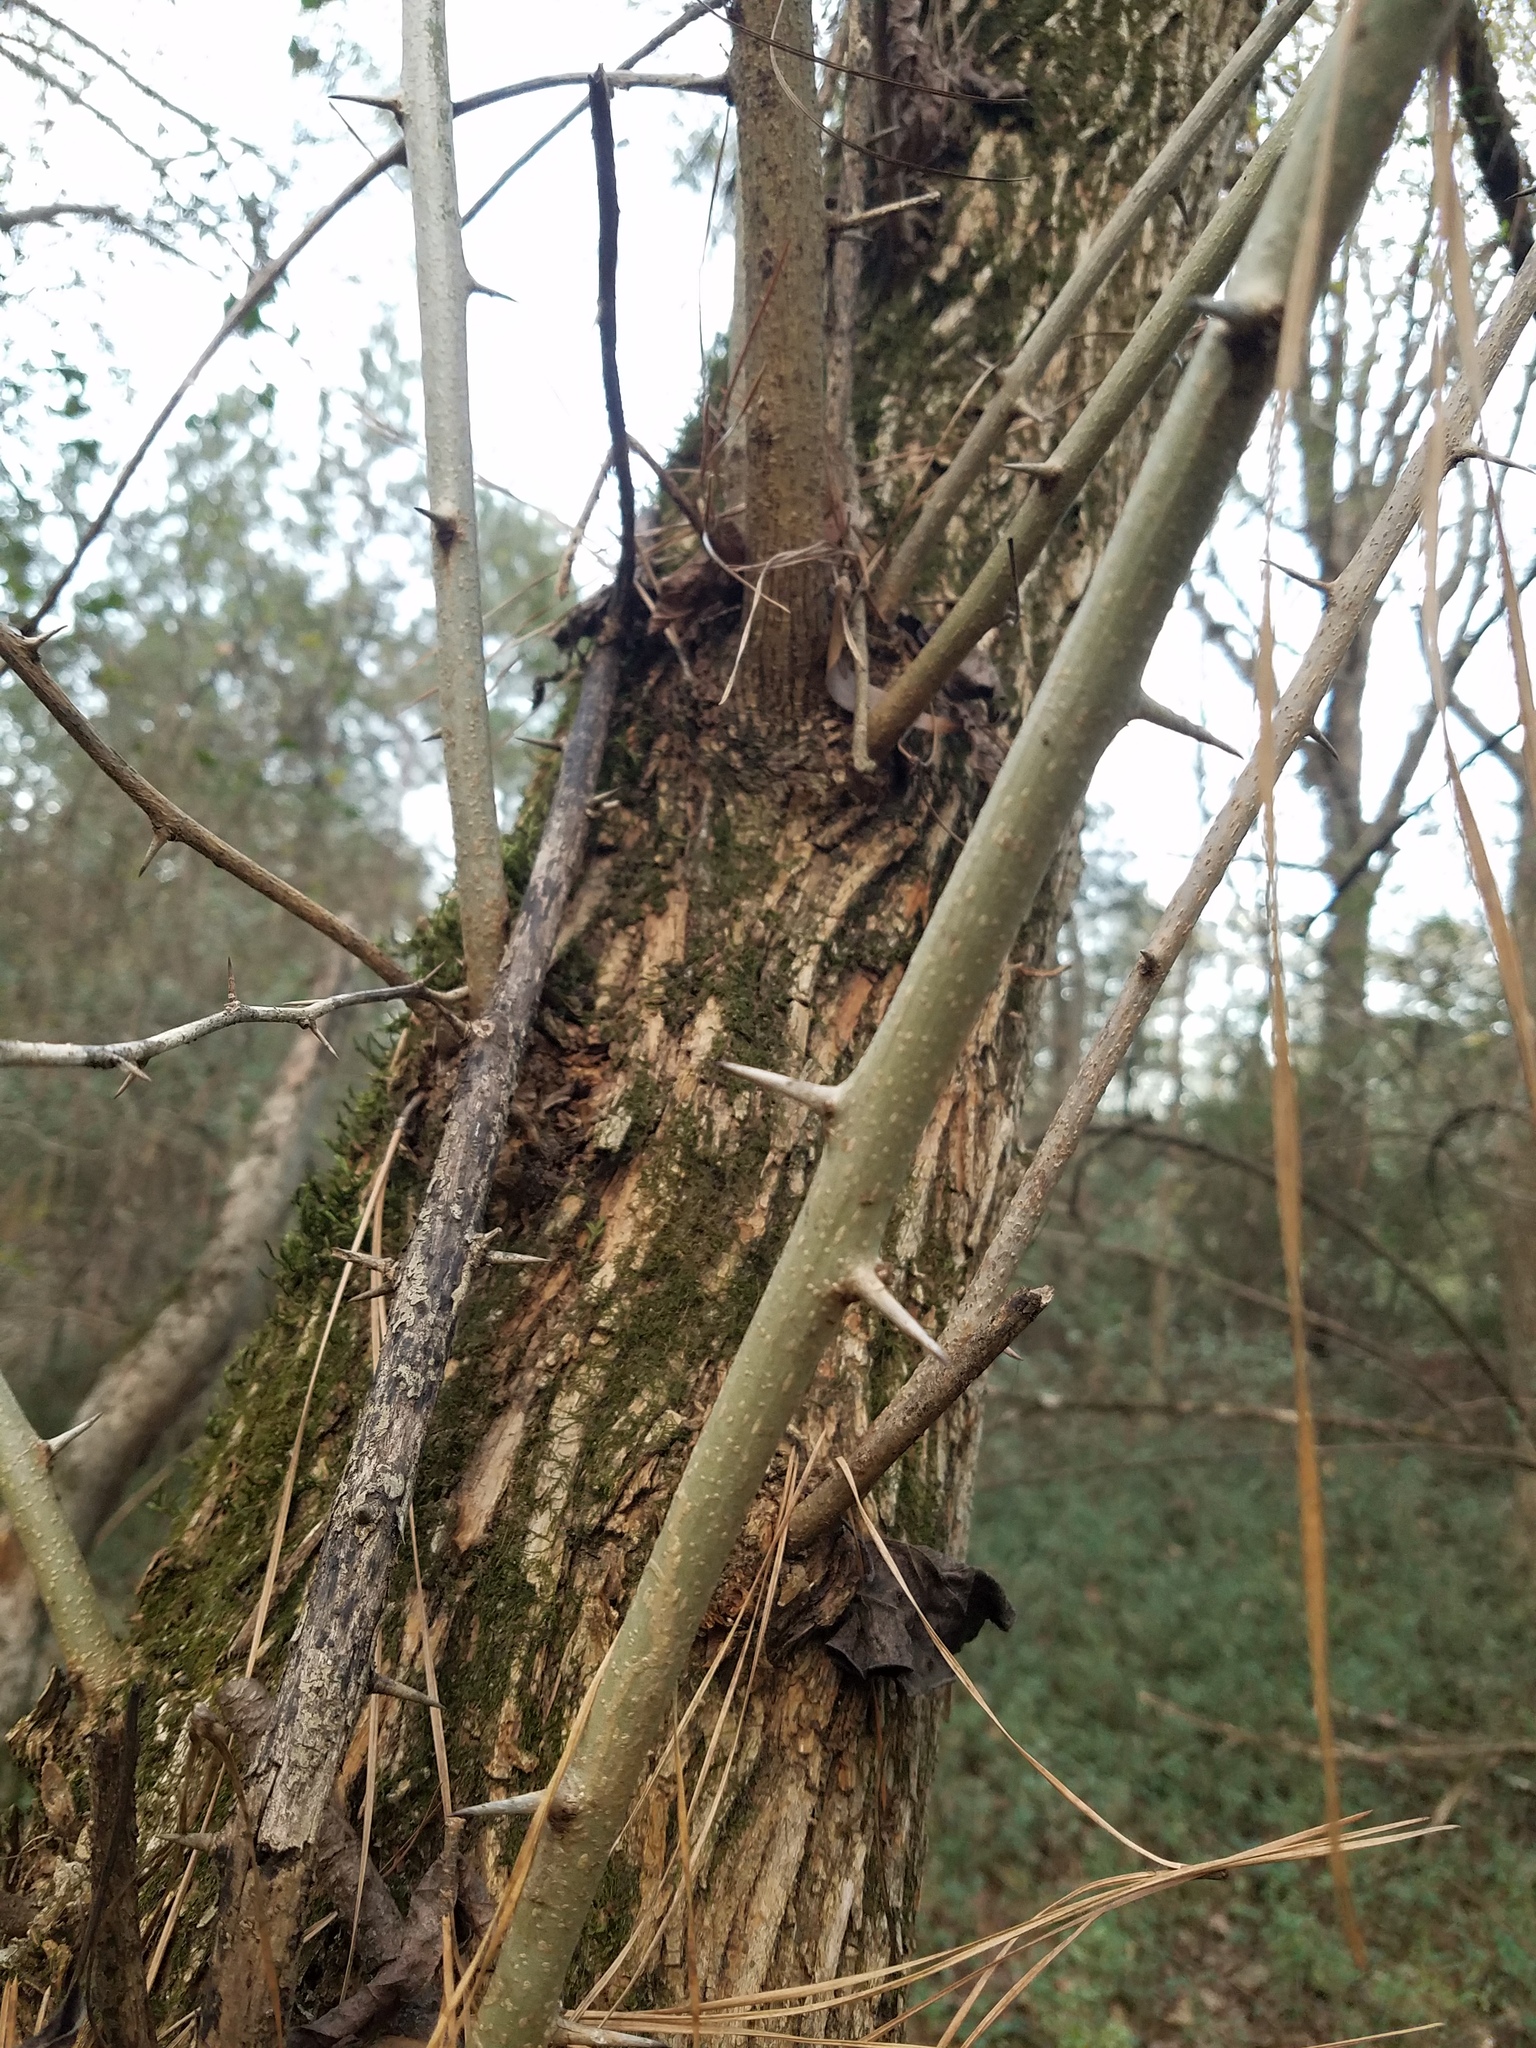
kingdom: Plantae
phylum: Tracheophyta
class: Magnoliopsida
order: Rosales
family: Moraceae
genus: Maclura
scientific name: Maclura pomifera
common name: Osage-orange
